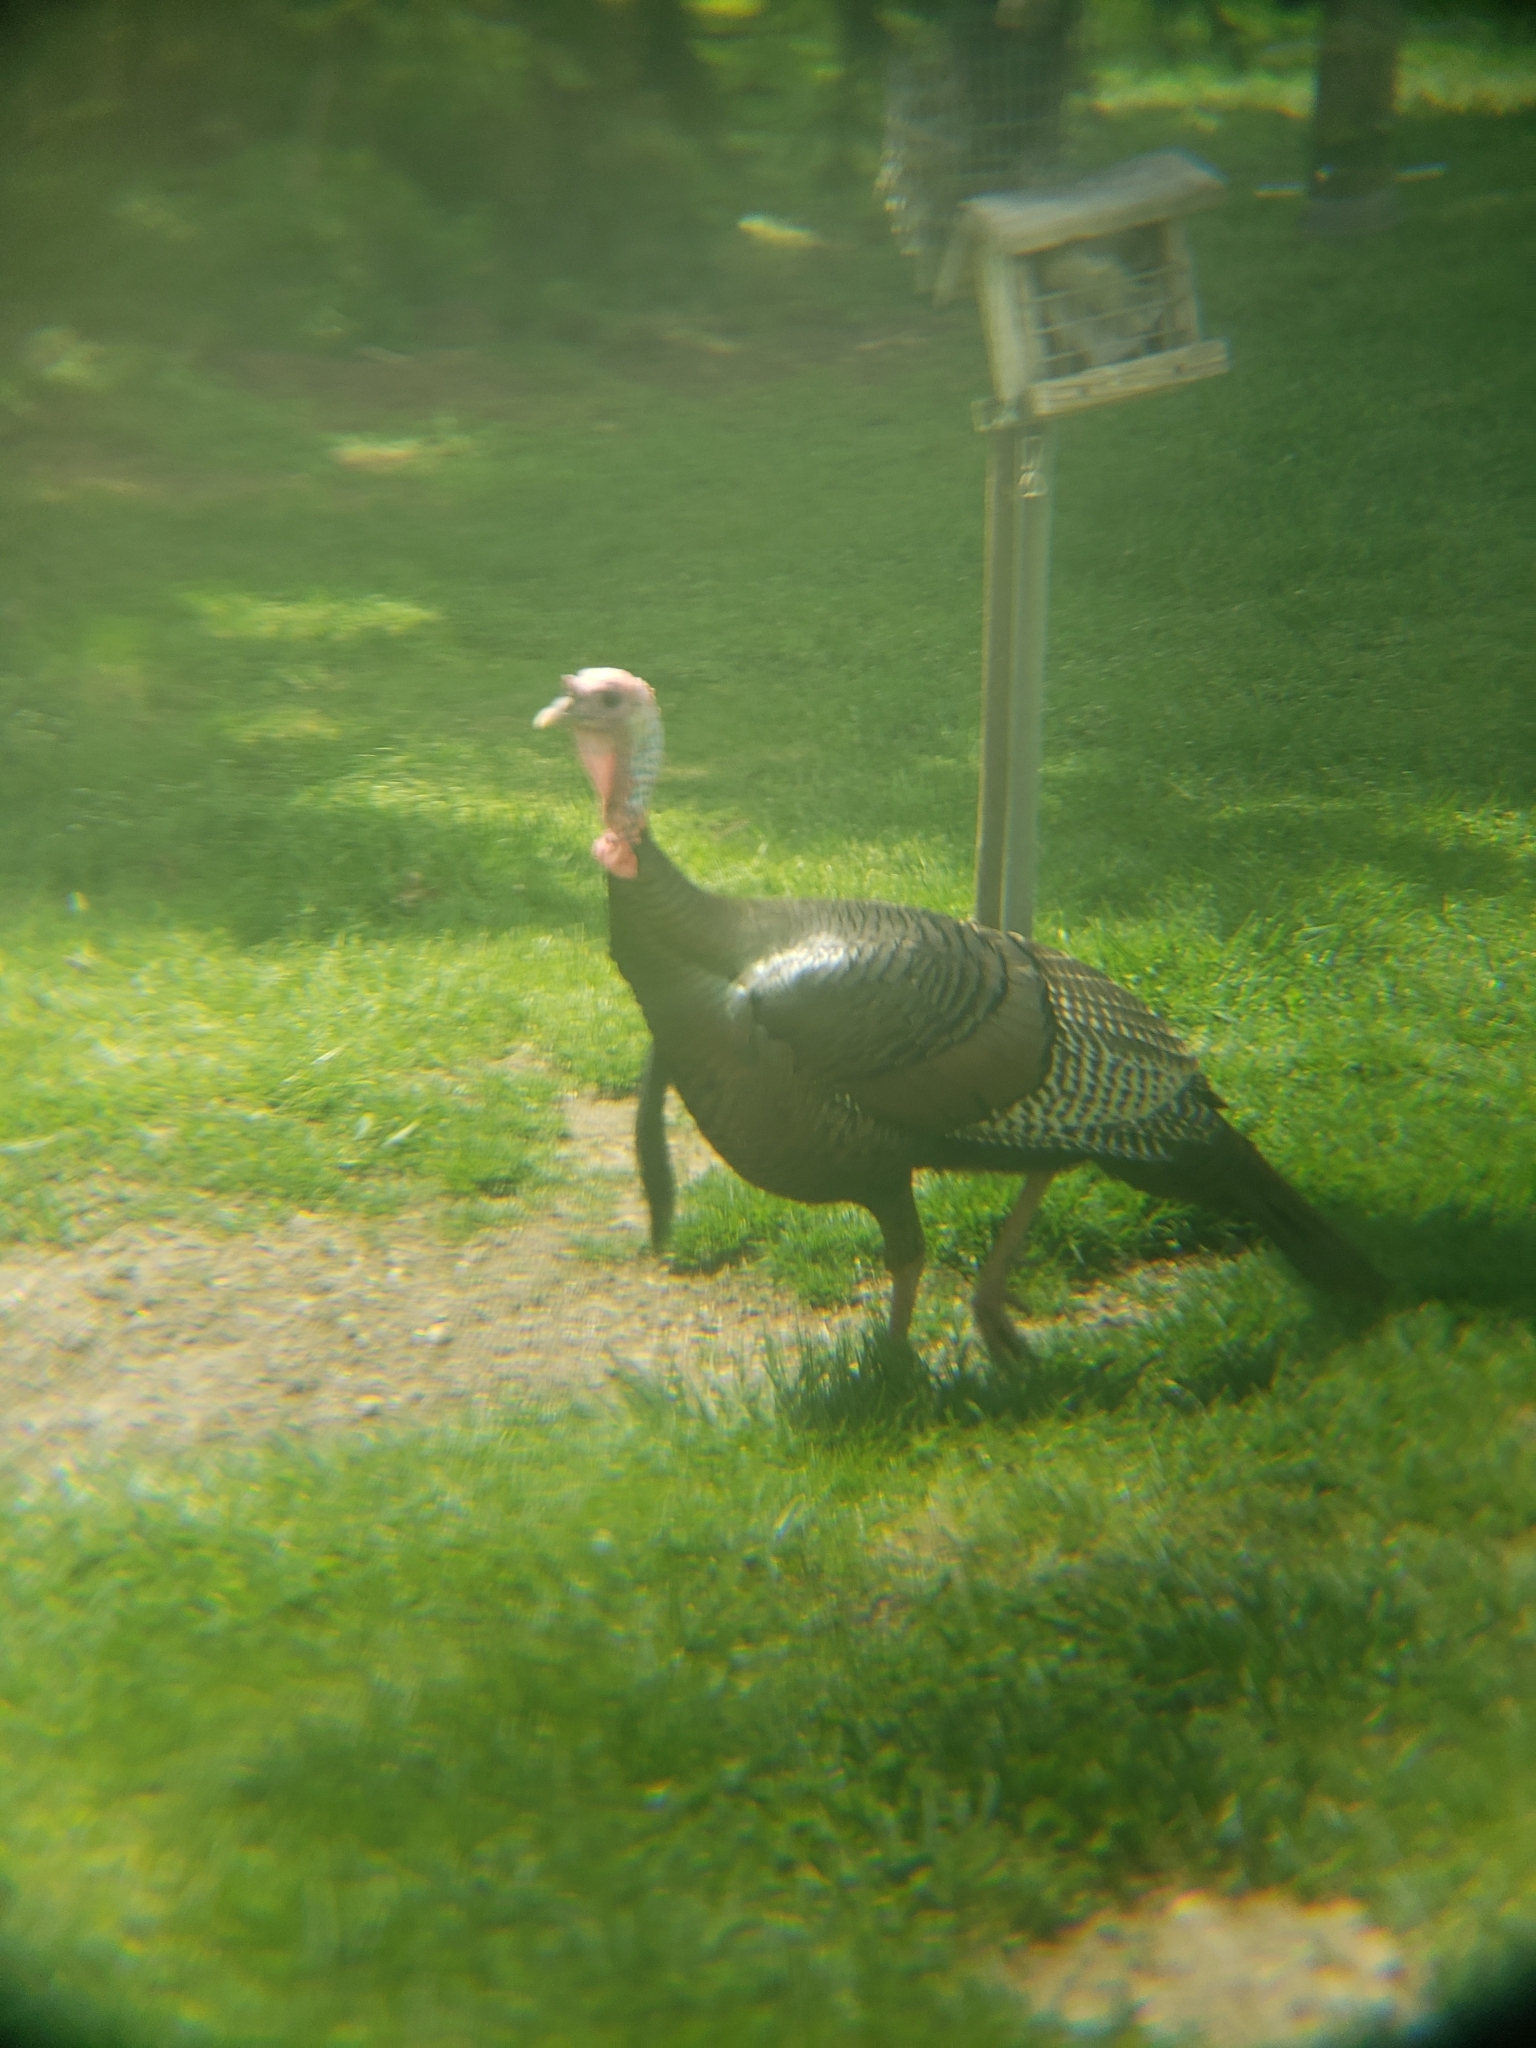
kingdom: Animalia
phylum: Chordata
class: Aves
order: Galliformes
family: Phasianidae
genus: Meleagris
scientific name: Meleagris gallopavo
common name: Wild turkey
